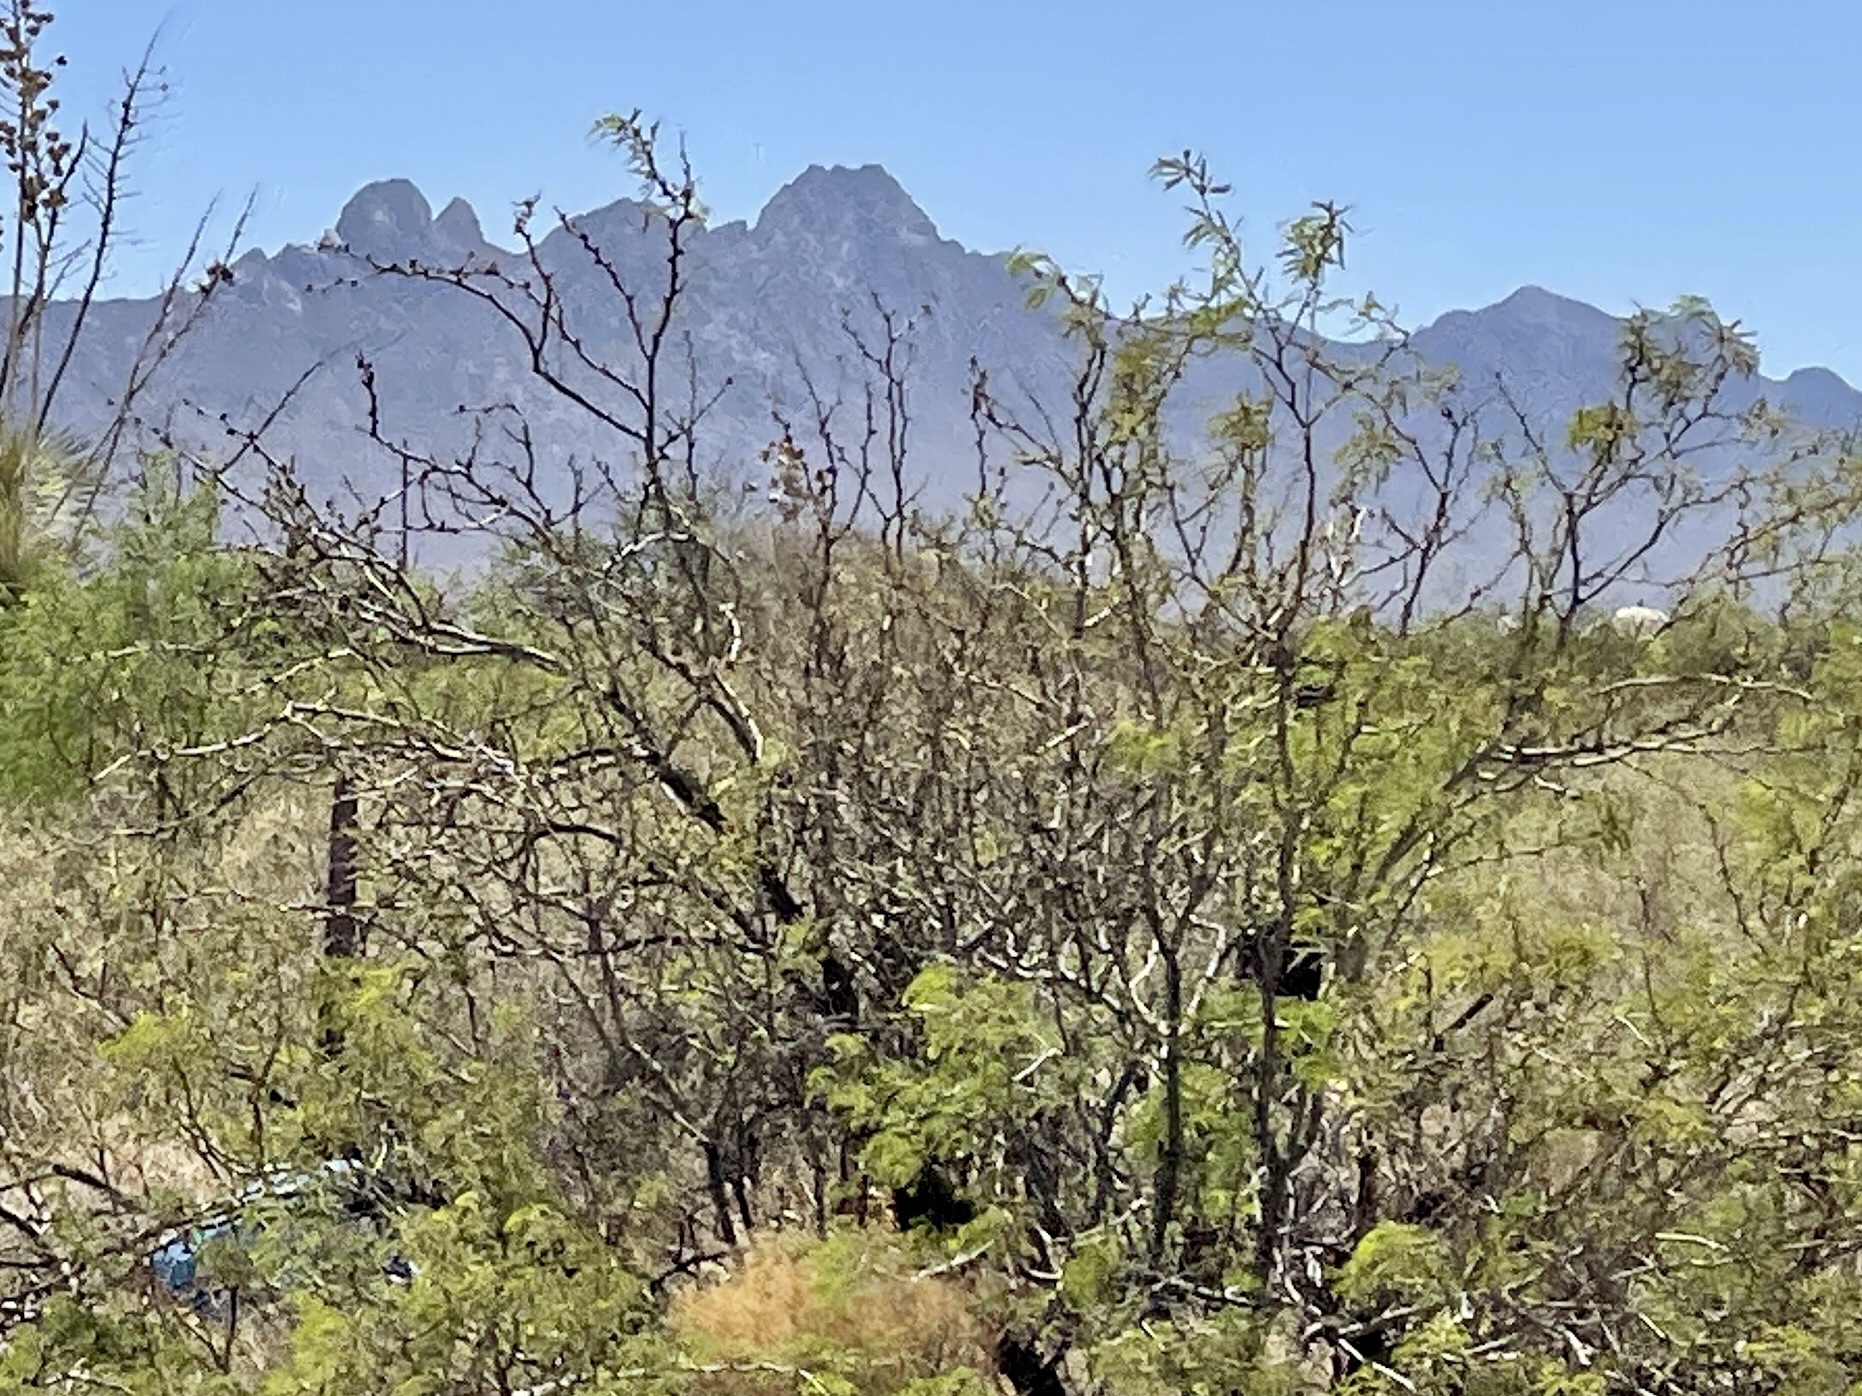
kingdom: Plantae
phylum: Tracheophyta
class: Magnoliopsida
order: Fabales
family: Fabaceae
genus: Prosopis
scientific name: Prosopis glandulosa
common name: Honey mesquite
